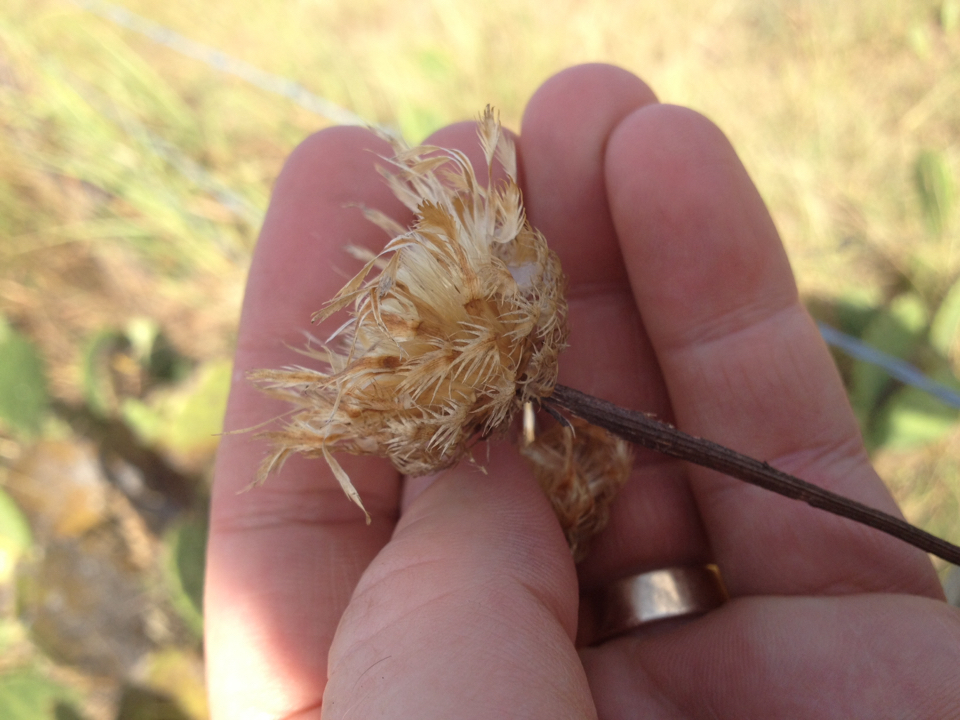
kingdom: Plantae
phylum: Tracheophyta
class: Magnoliopsida
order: Asterales
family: Asteraceae
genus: Plectocephalus
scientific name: Plectocephalus americanus
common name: American basket-flower
